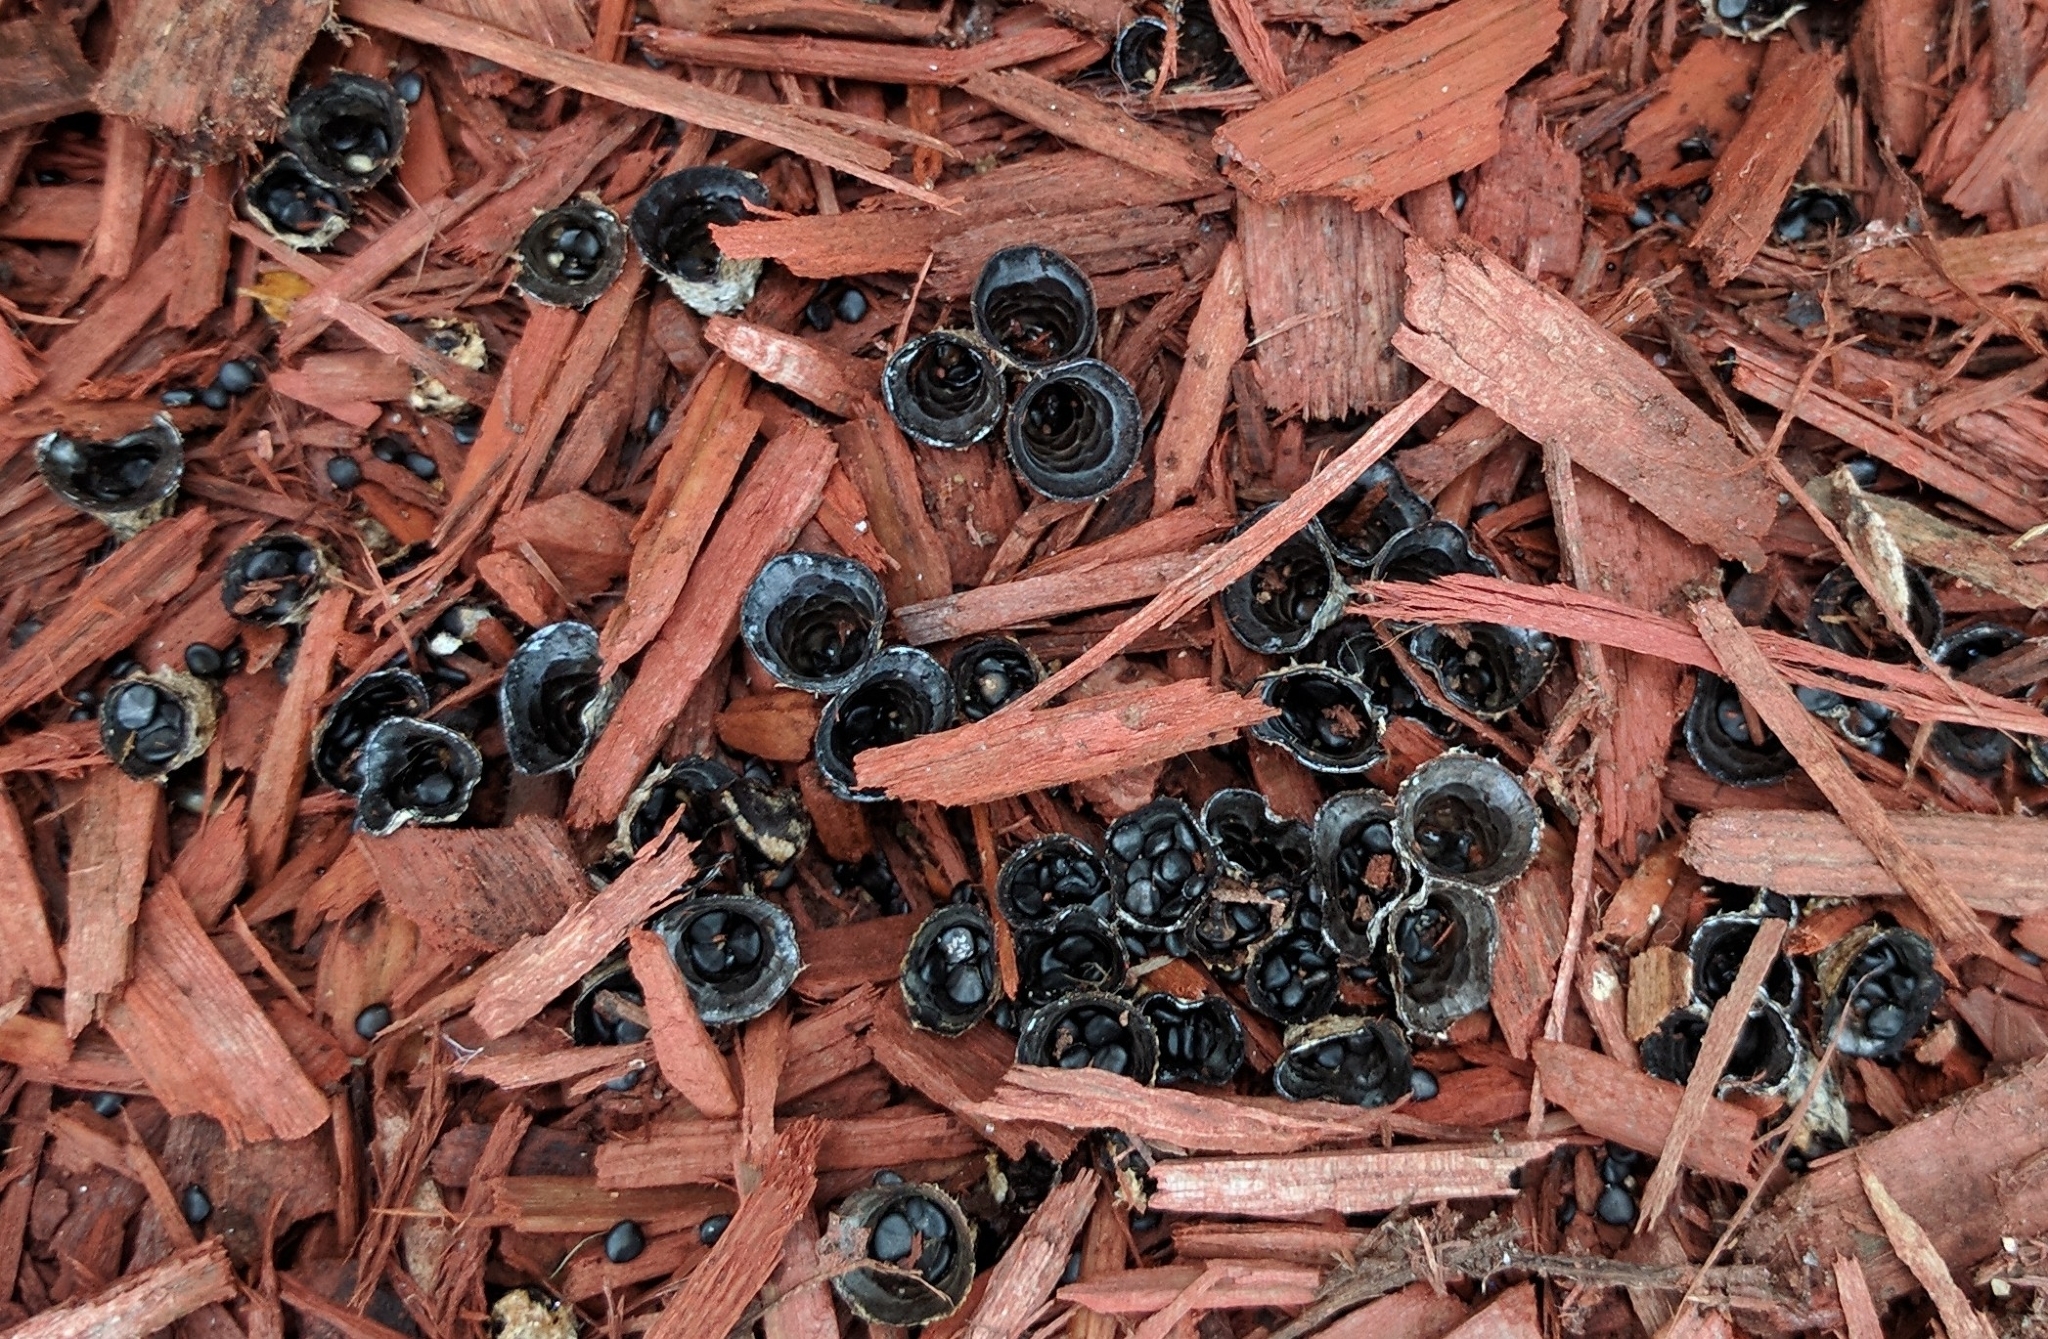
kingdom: Fungi
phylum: Basidiomycota
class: Agaricomycetes
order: Agaricales
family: Agaricaceae
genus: Cyathus
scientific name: Cyathus stercoreus
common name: Dung bird's nest
